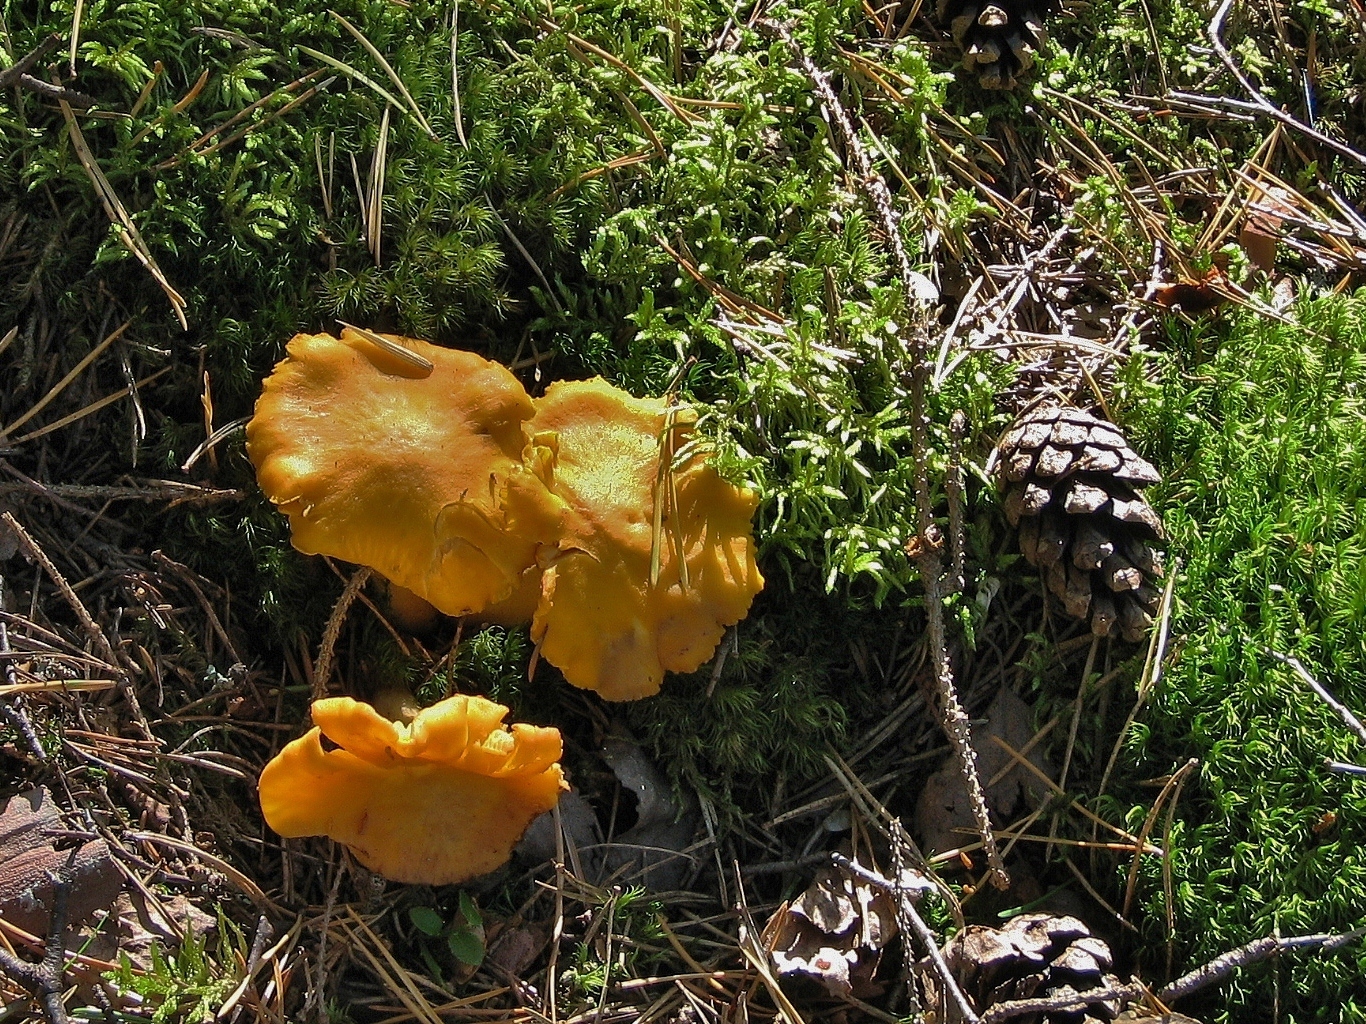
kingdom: Fungi
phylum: Basidiomycota
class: Agaricomycetes
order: Cantharellales
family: Hydnaceae
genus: Cantharellus
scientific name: Cantharellus cibarius
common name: Chanterelle
